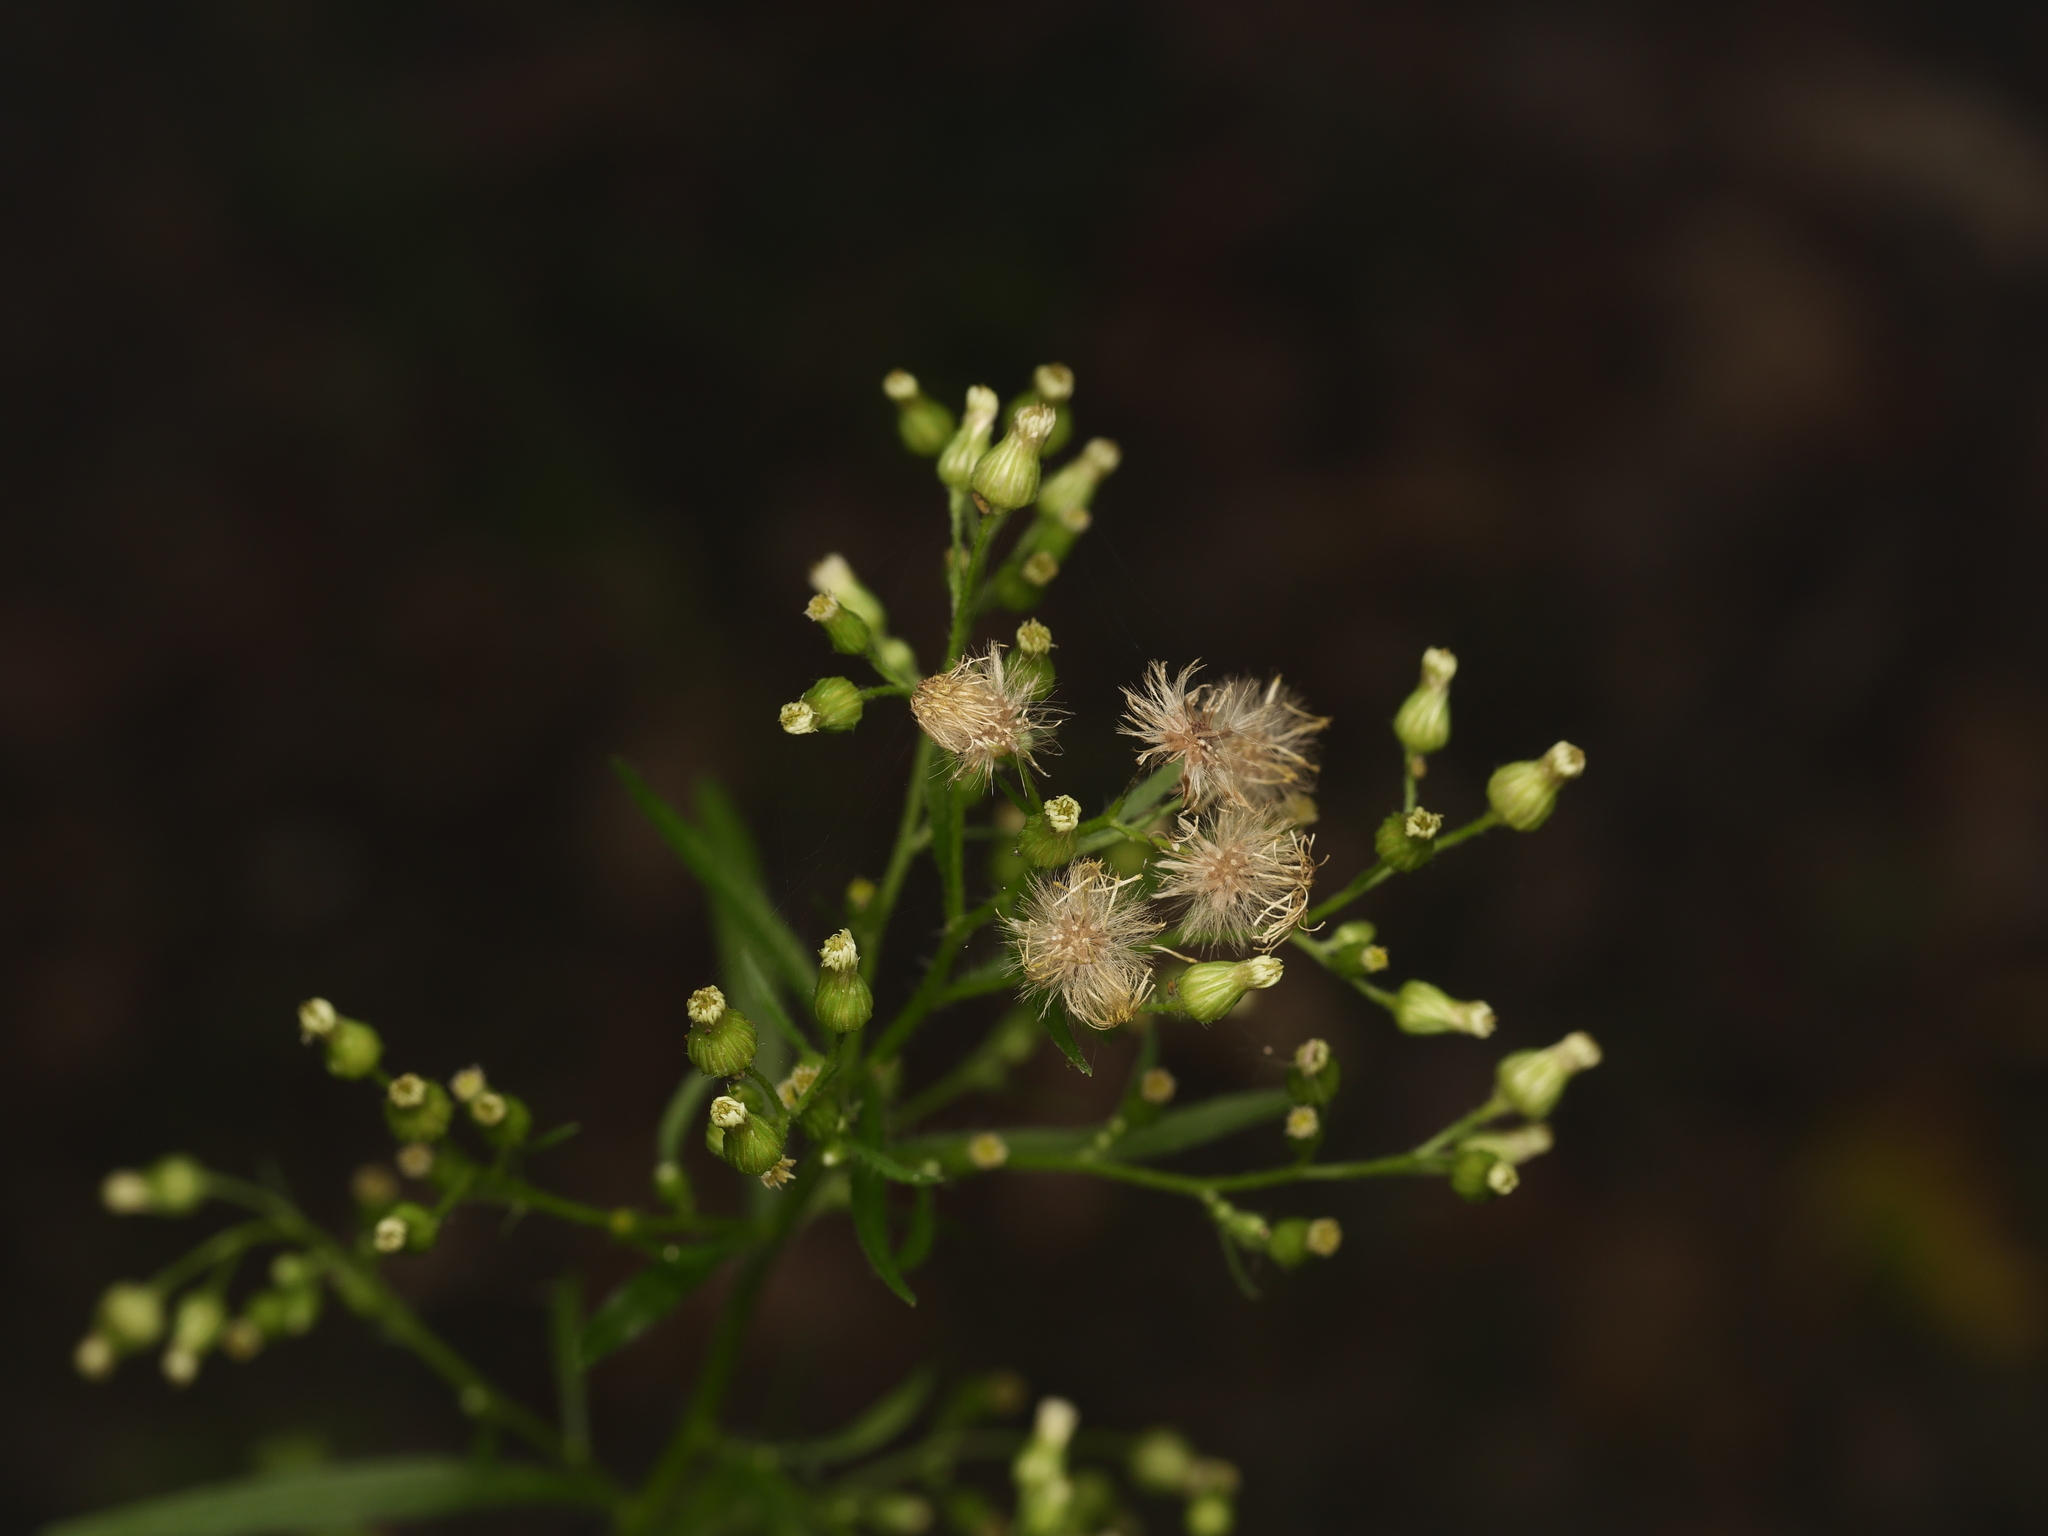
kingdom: Plantae
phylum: Tracheophyta
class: Magnoliopsida
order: Asterales
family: Asteraceae
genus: Erigeron
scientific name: Erigeron canadensis
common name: Canadian fleabane
